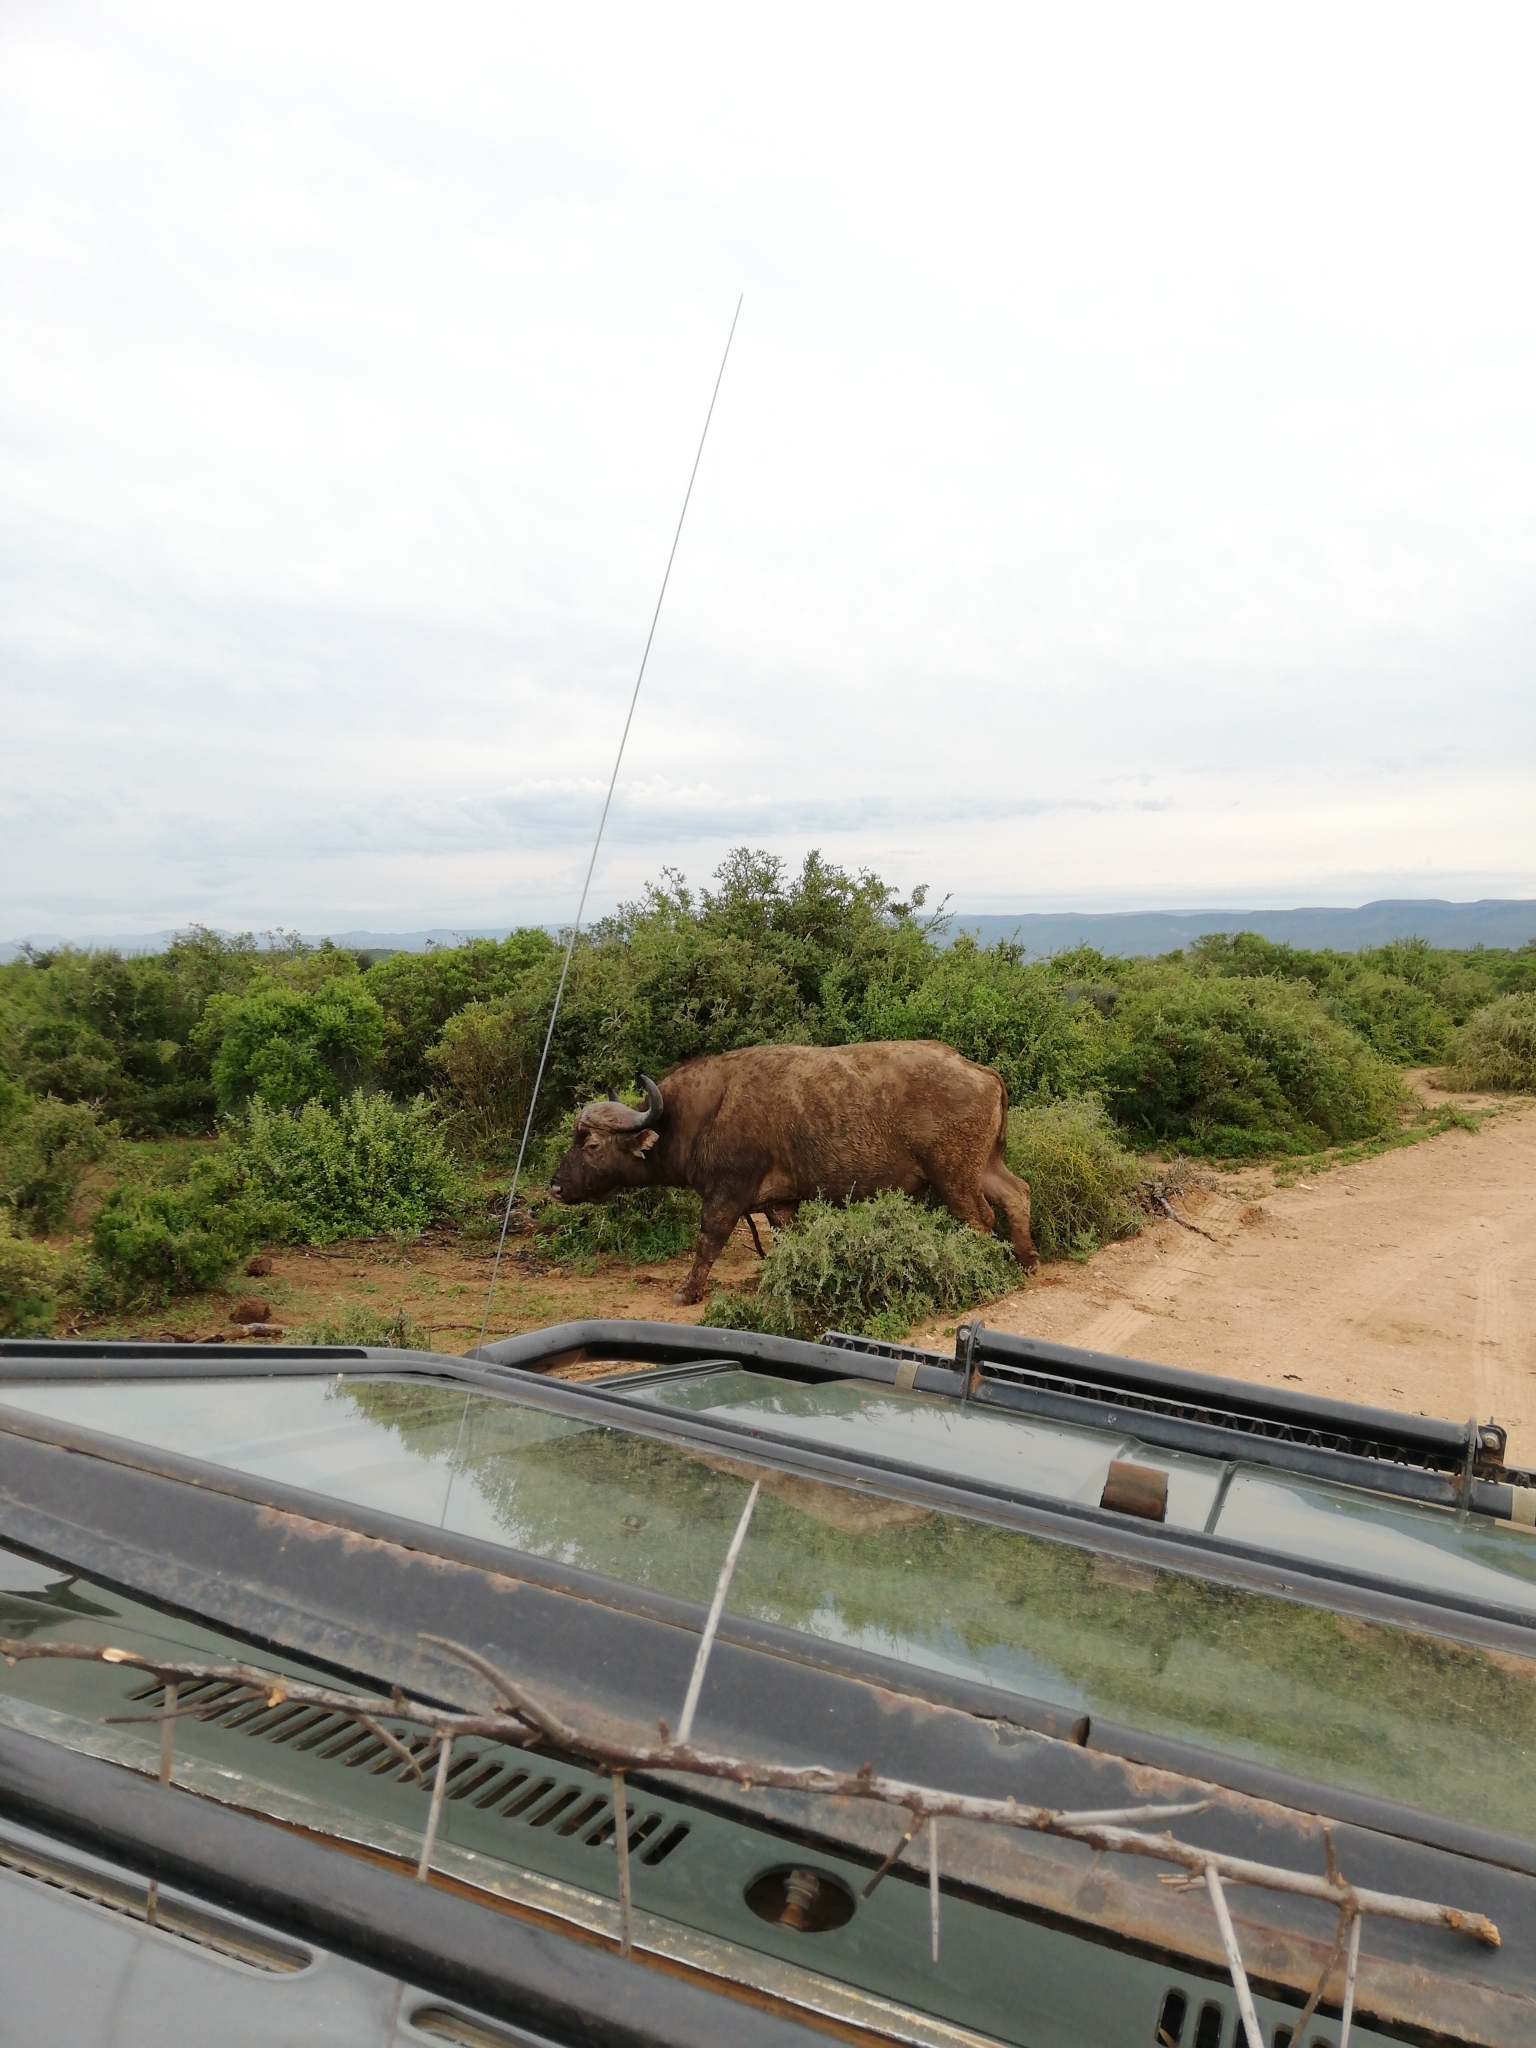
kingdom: Animalia
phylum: Chordata
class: Mammalia
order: Artiodactyla
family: Bovidae
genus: Syncerus
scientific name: Syncerus caffer
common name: African buffalo
